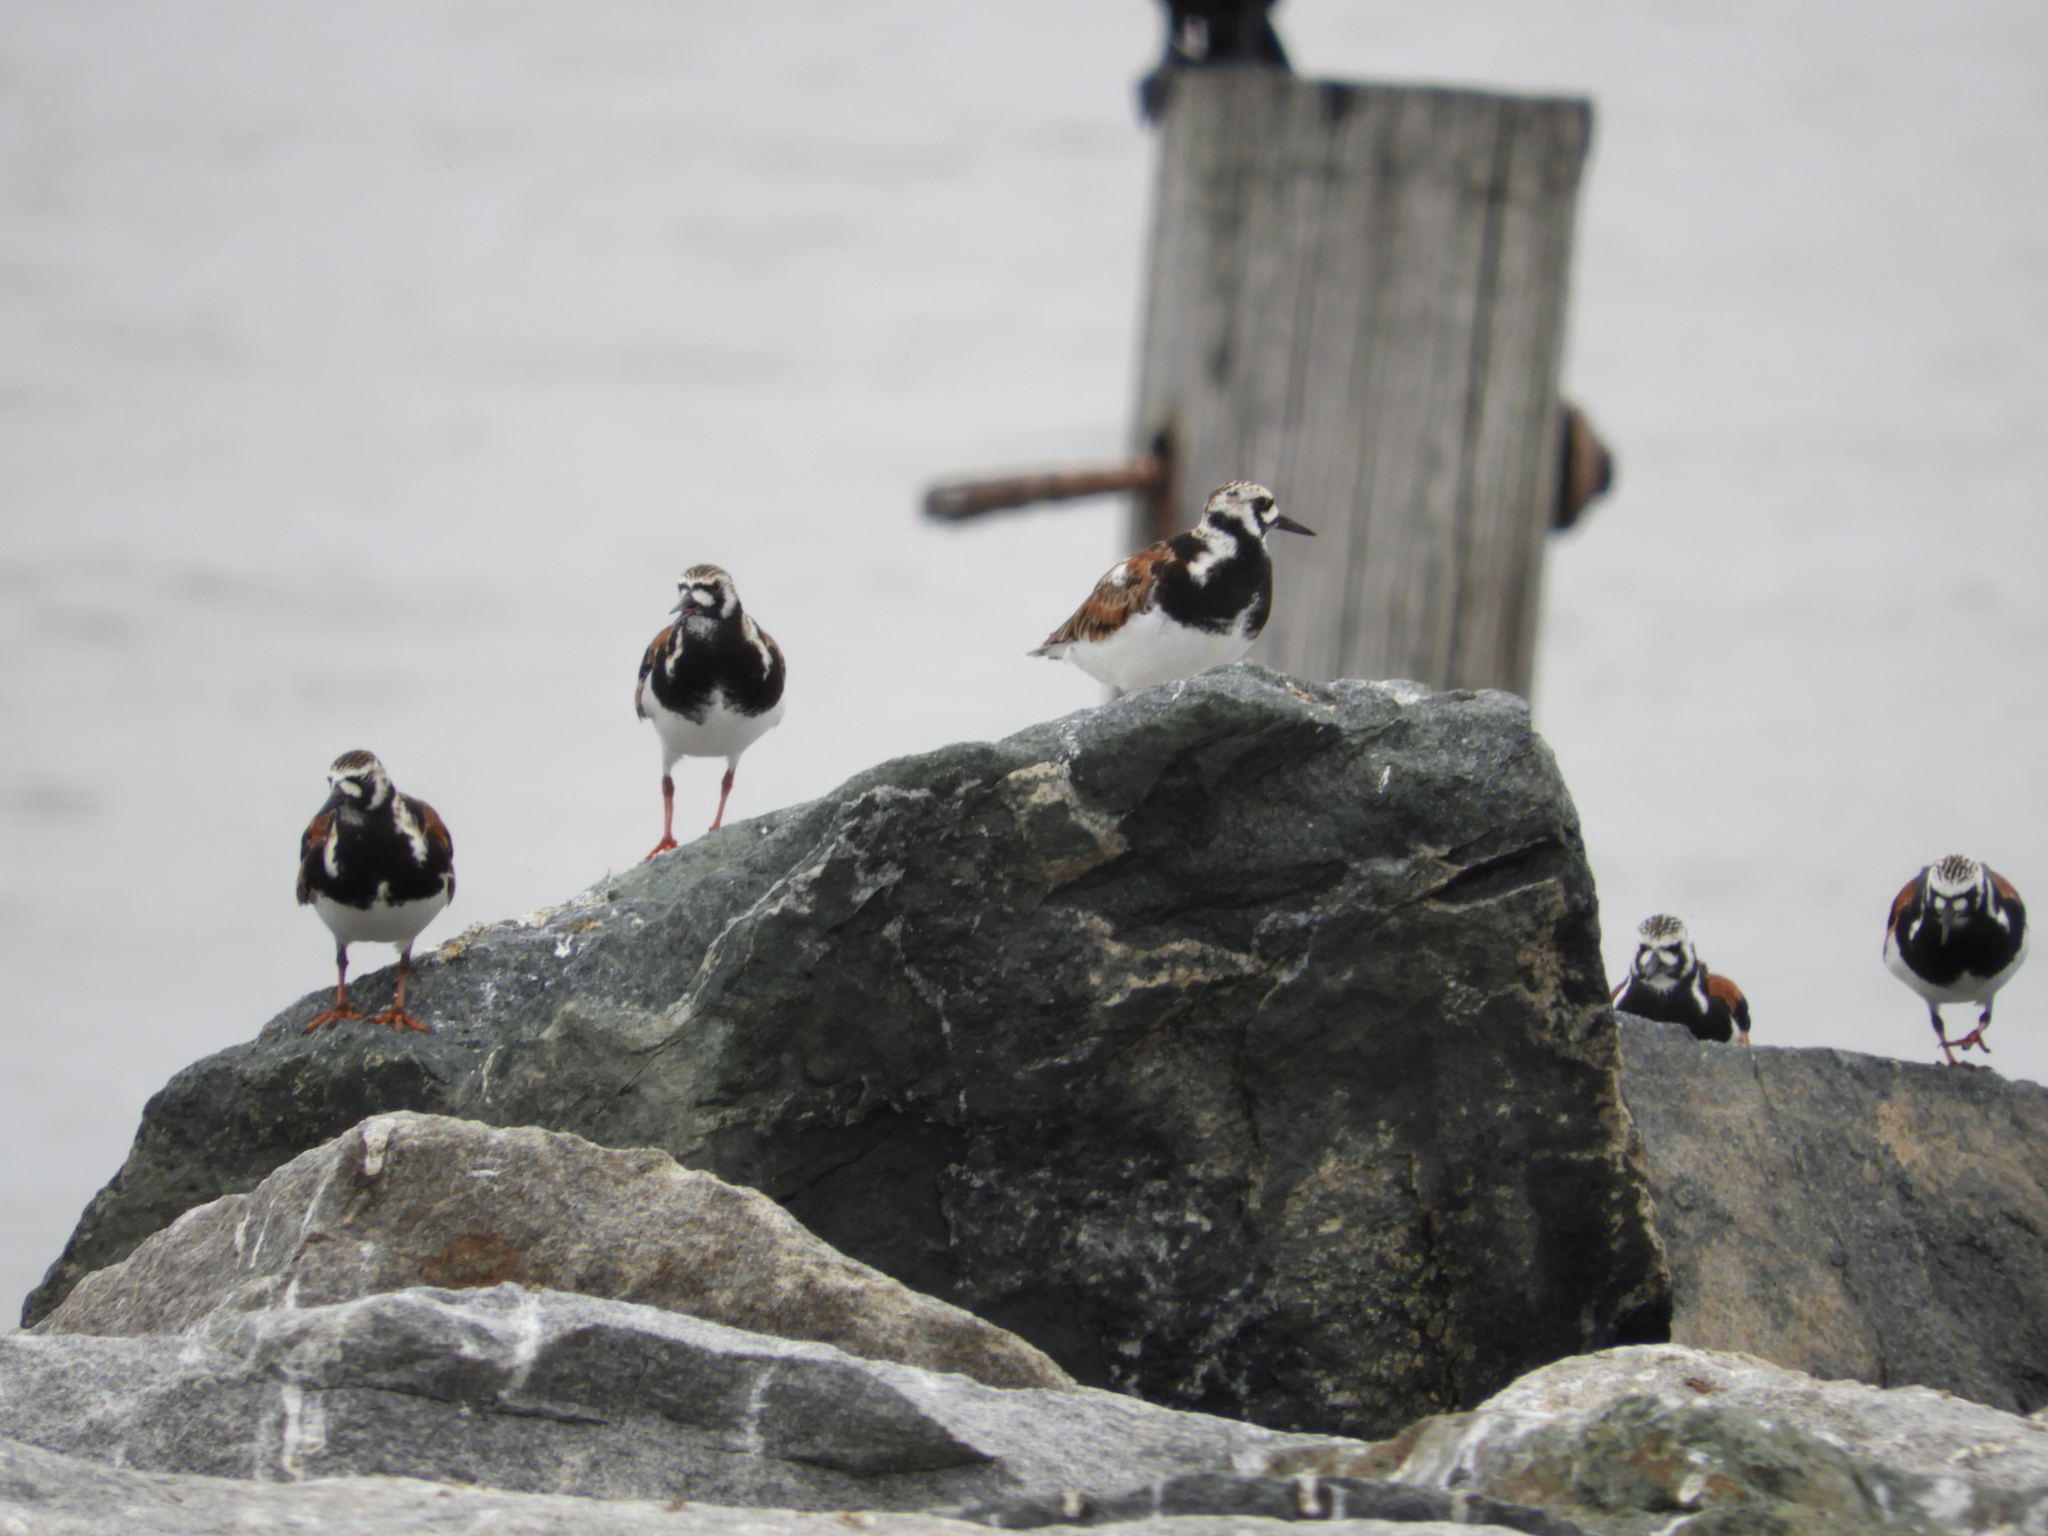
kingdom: Animalia
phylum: Chordata
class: Aves
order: Charadriiformes
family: Scolopacidae
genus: Arenaria
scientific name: Arenaria interpres
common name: Ruddy turnstone
